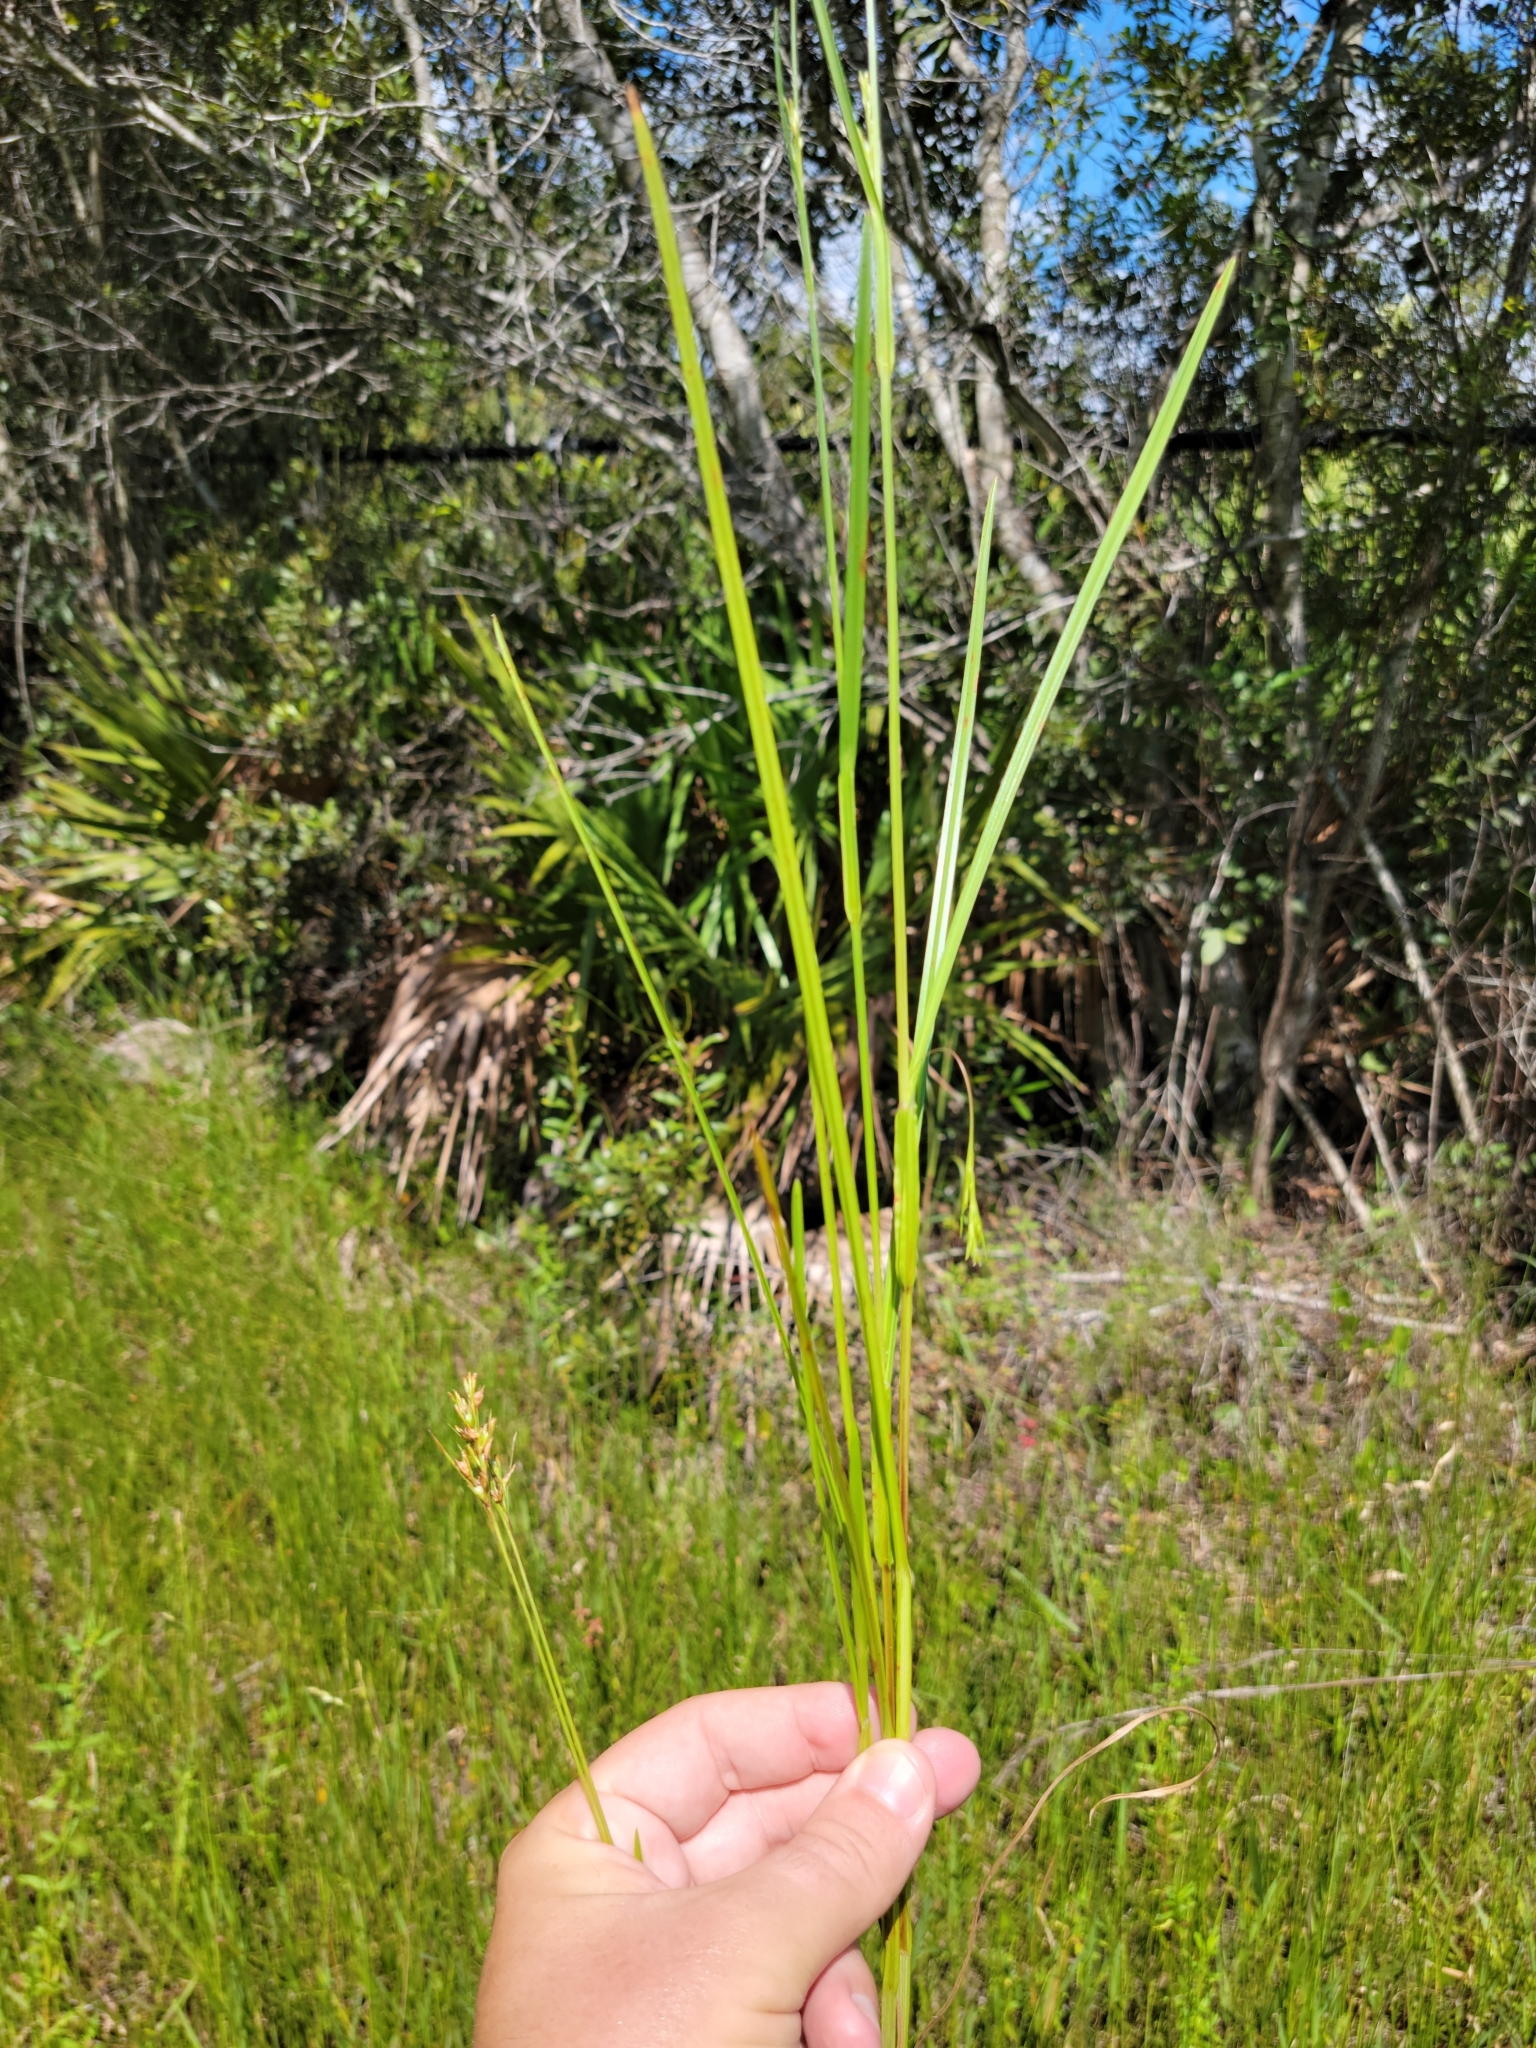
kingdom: Plantae
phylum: Tracheophyta
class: Liliopsida
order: Poales
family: Cyperaceae
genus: Scleria
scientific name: Scleria muehlenbergii
